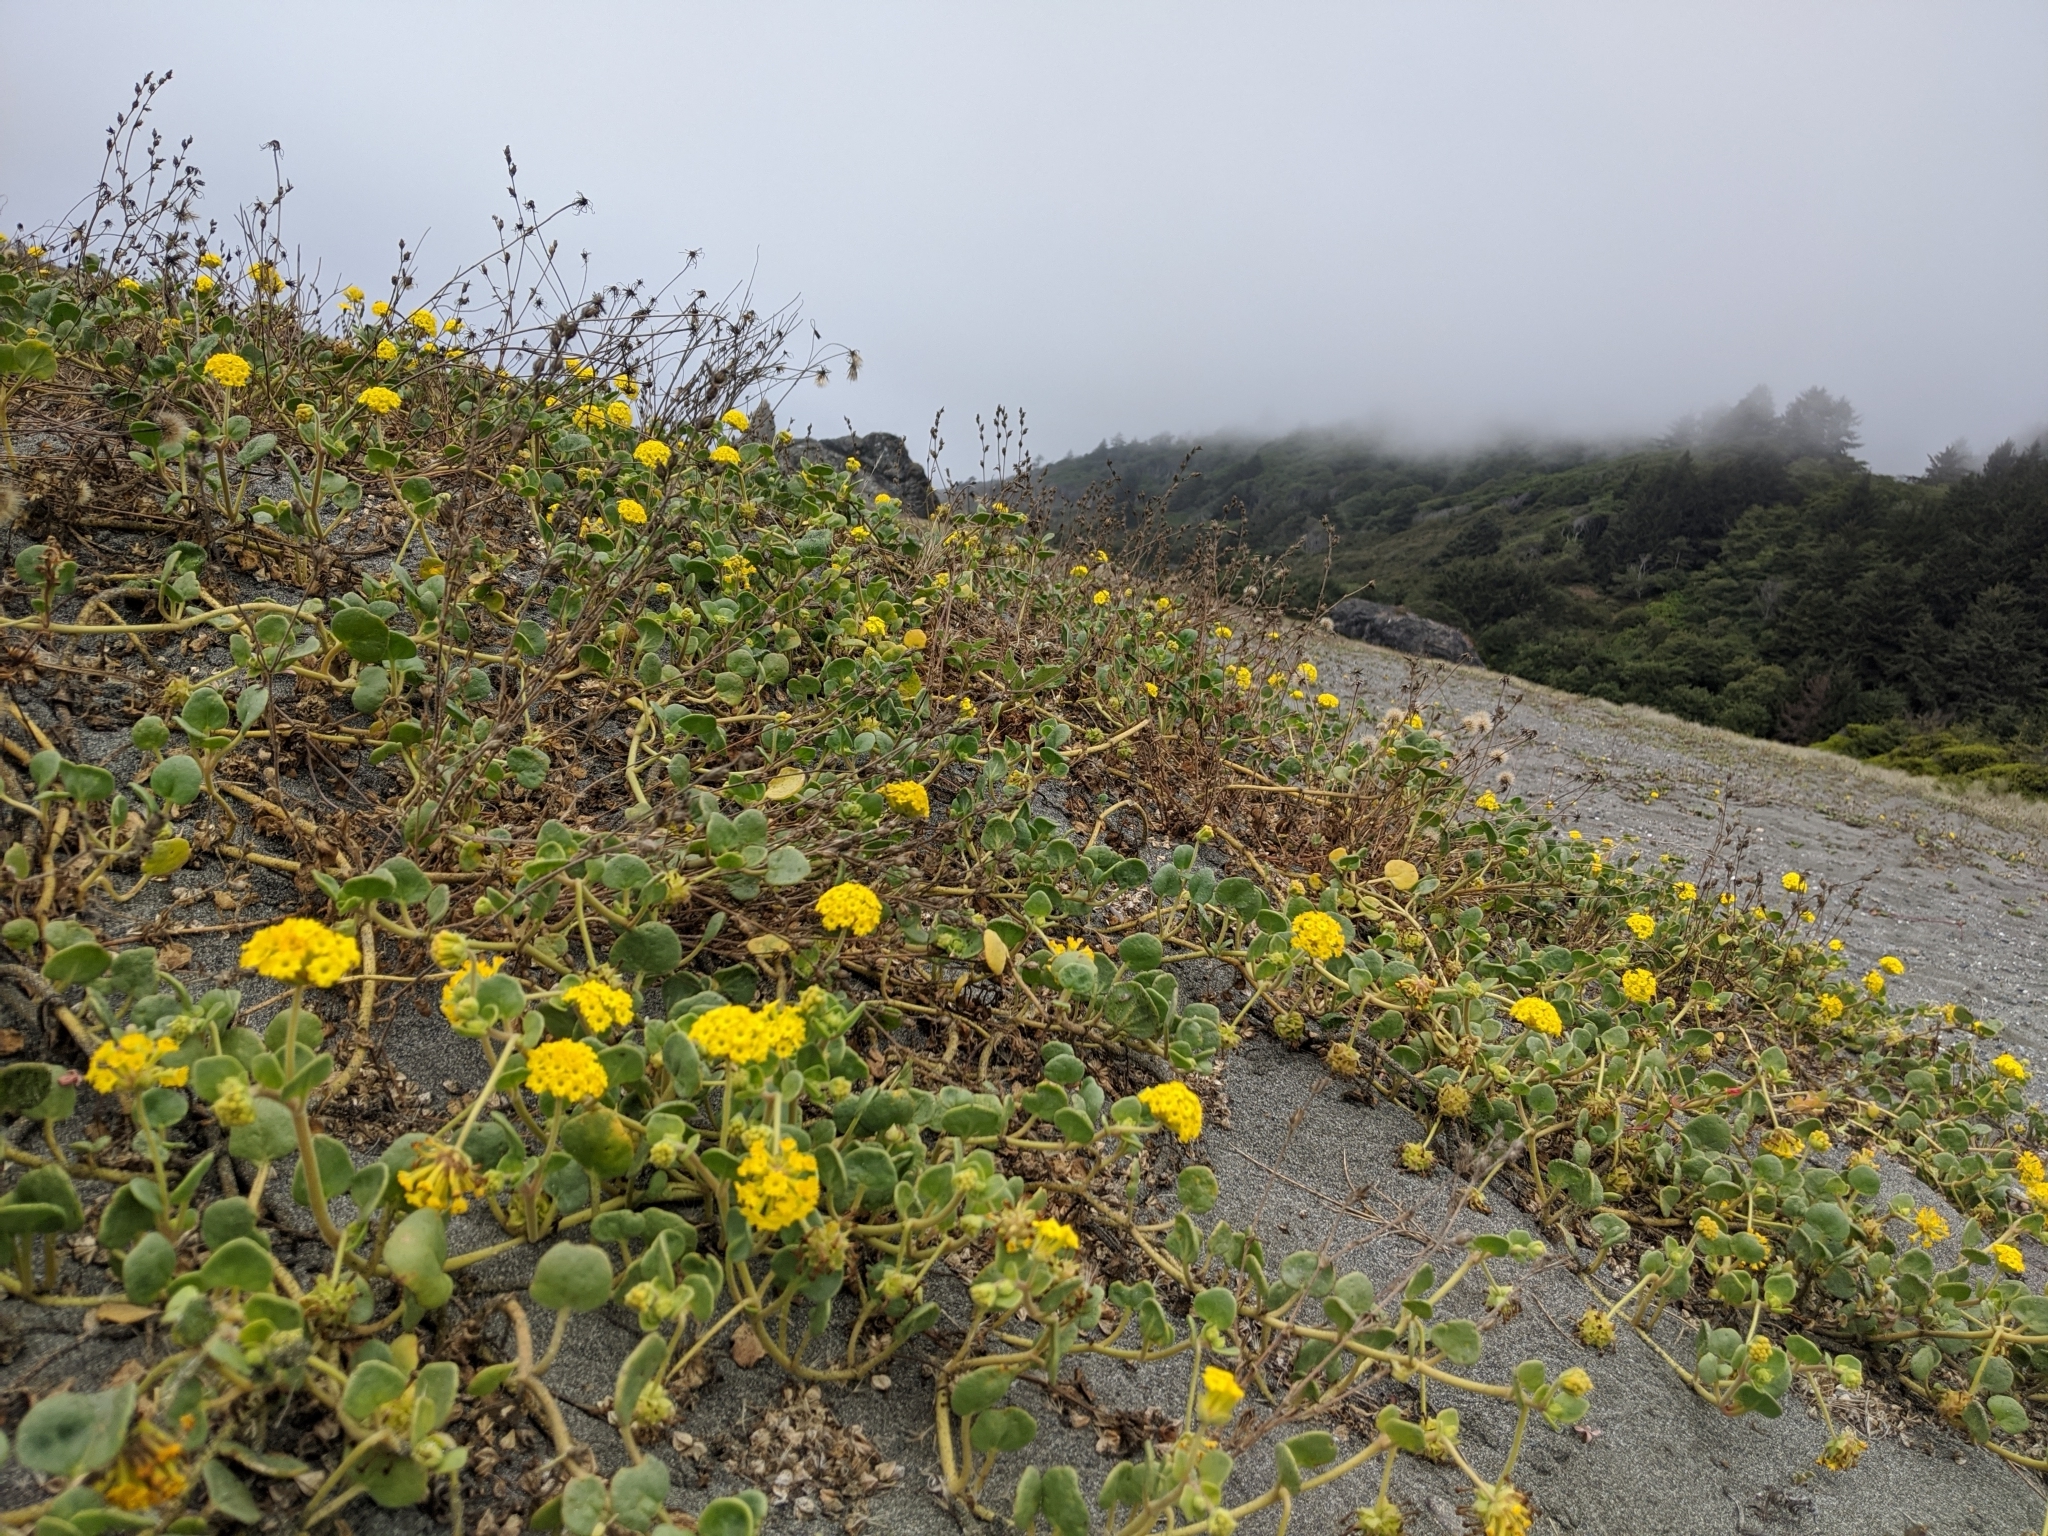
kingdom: Plantae
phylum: Tracheophyta
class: Magnoliopsida
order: Caryophyllales
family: Nyctaginaceae
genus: Abronia
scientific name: Abronia latifolia
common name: Yellow sand-verbena
